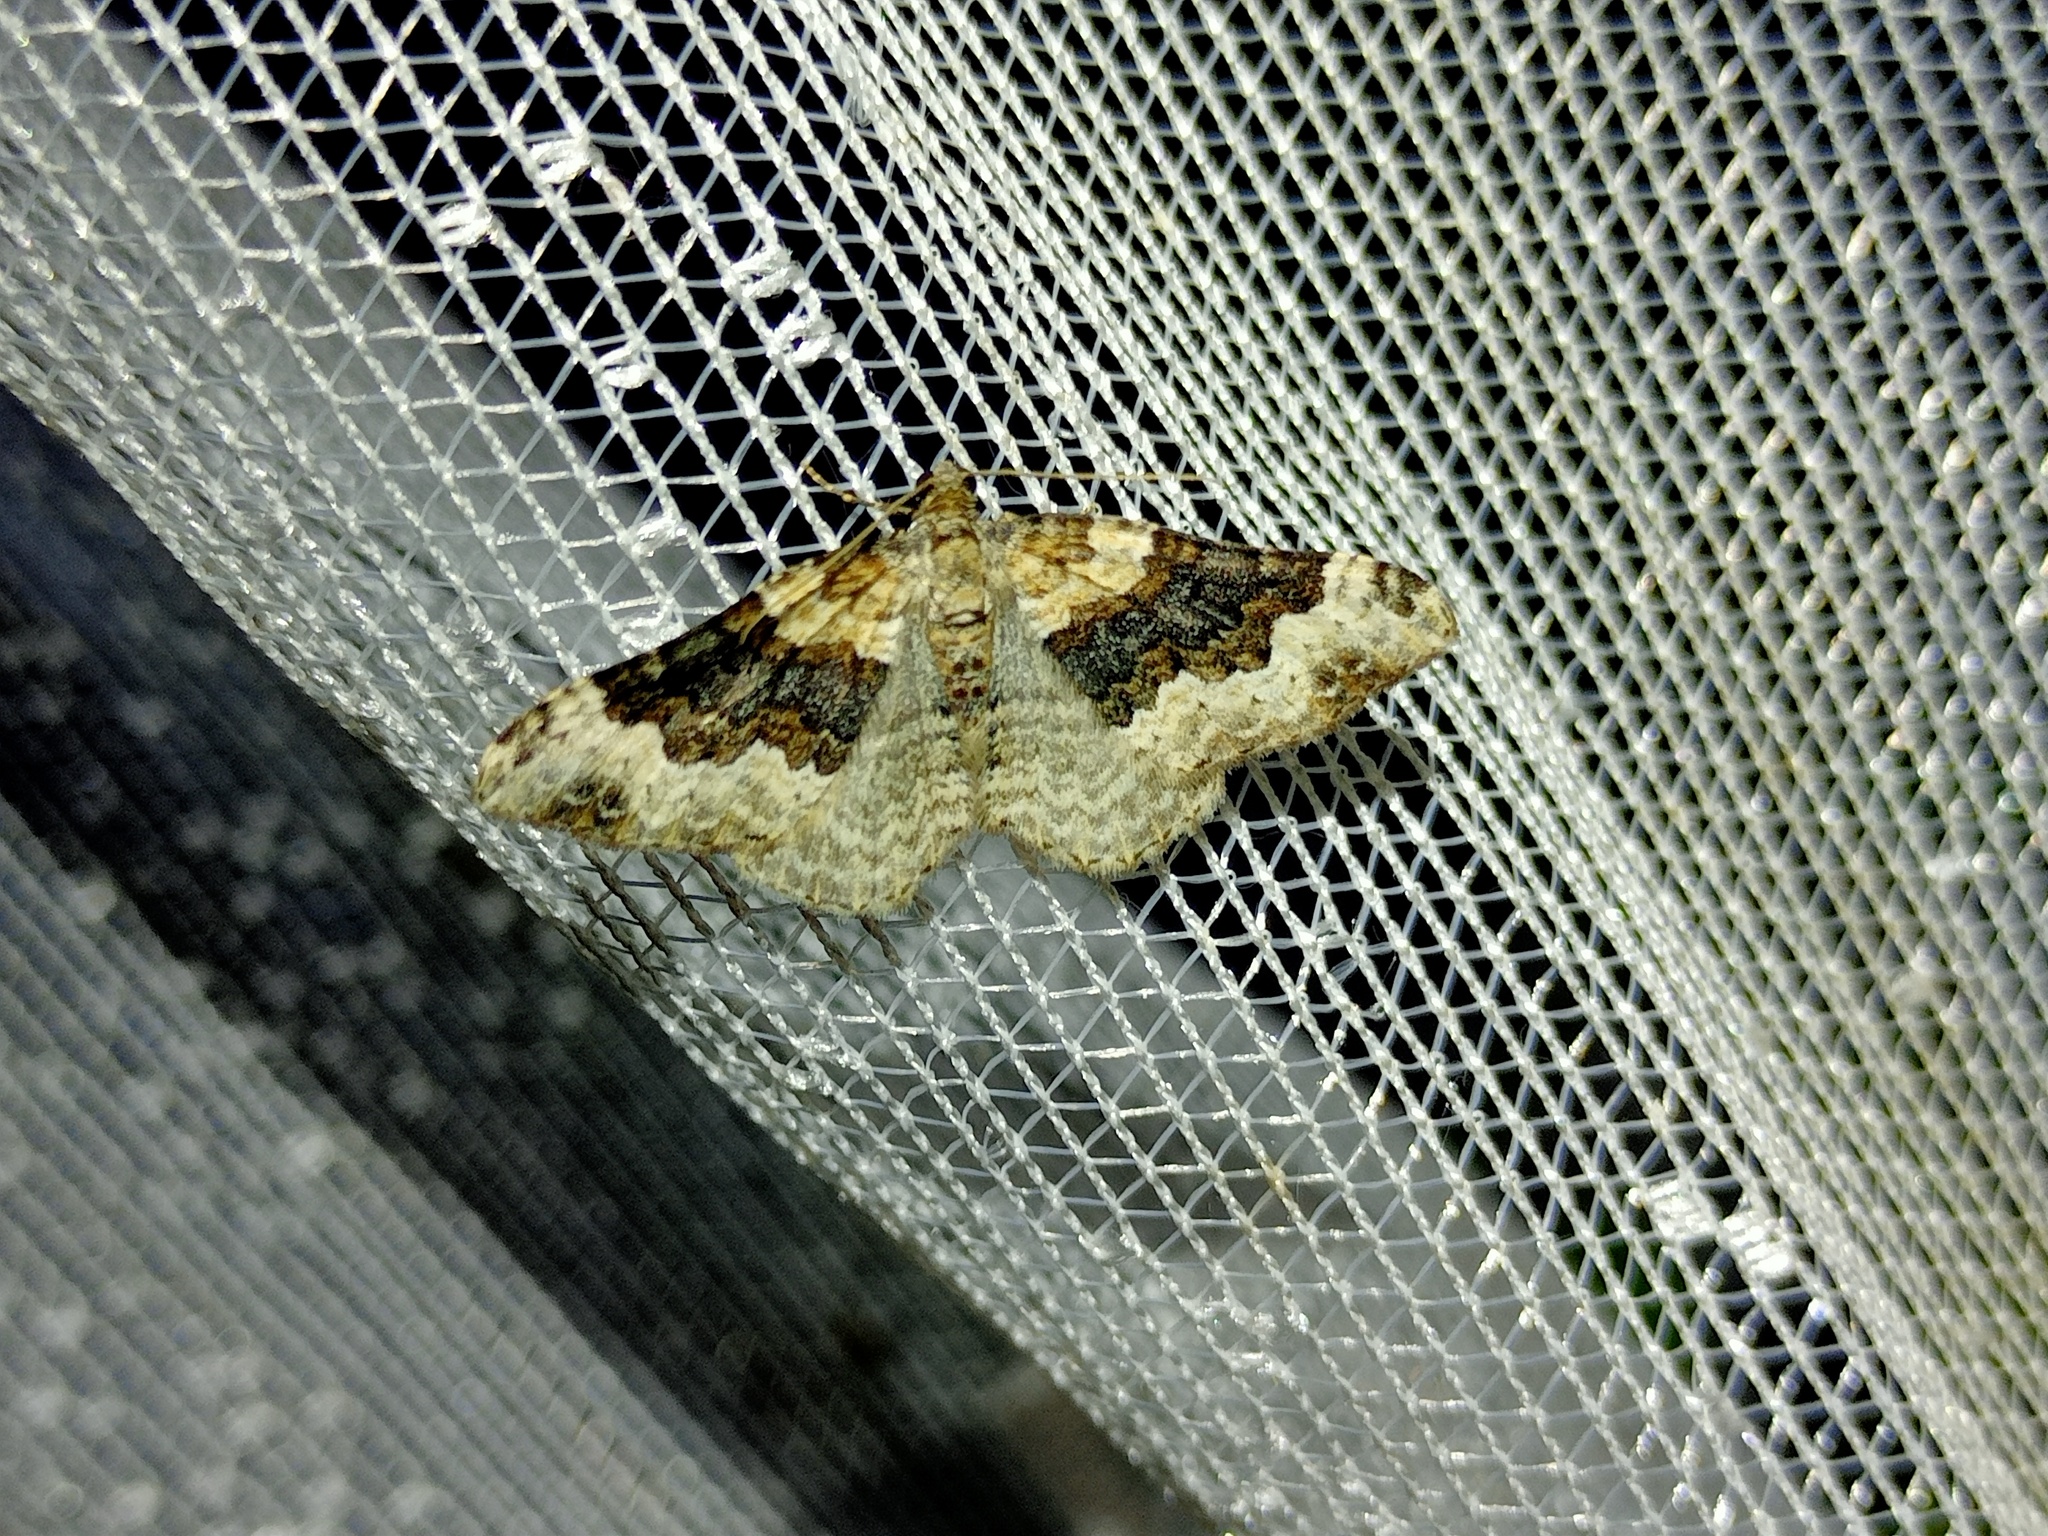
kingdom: Animalia
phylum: Arthropoda
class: Insecta
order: Lepidoptera
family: Geometridae
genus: Epirrhoe
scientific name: Epirrhoe galiata
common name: Galium carpet
